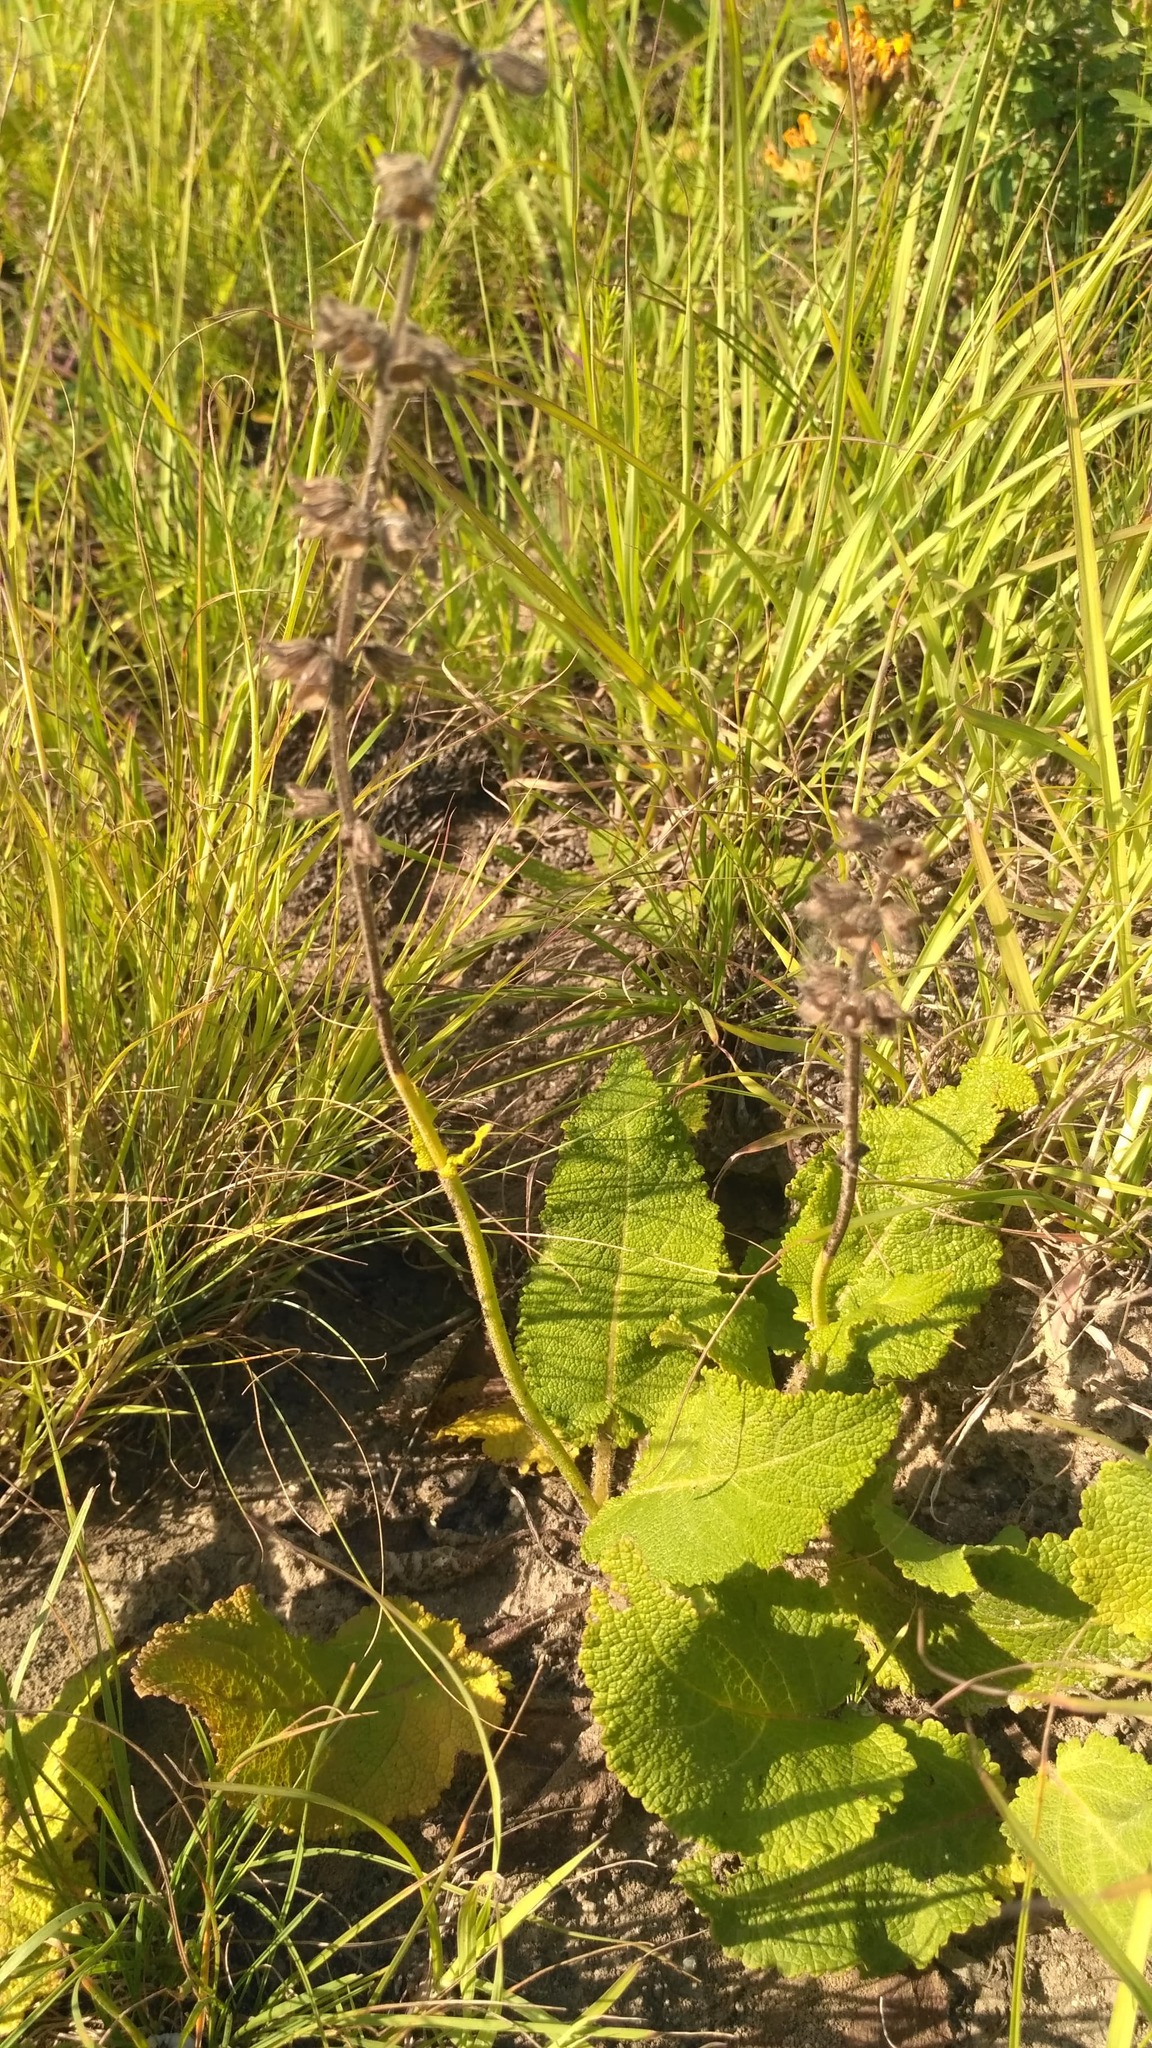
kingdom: Plantae
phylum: Tracheophyta
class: Magnoliopsida
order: Lamiales
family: Lamiaceae
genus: Salvia
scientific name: Salvia pratensis
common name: Meadow sage
